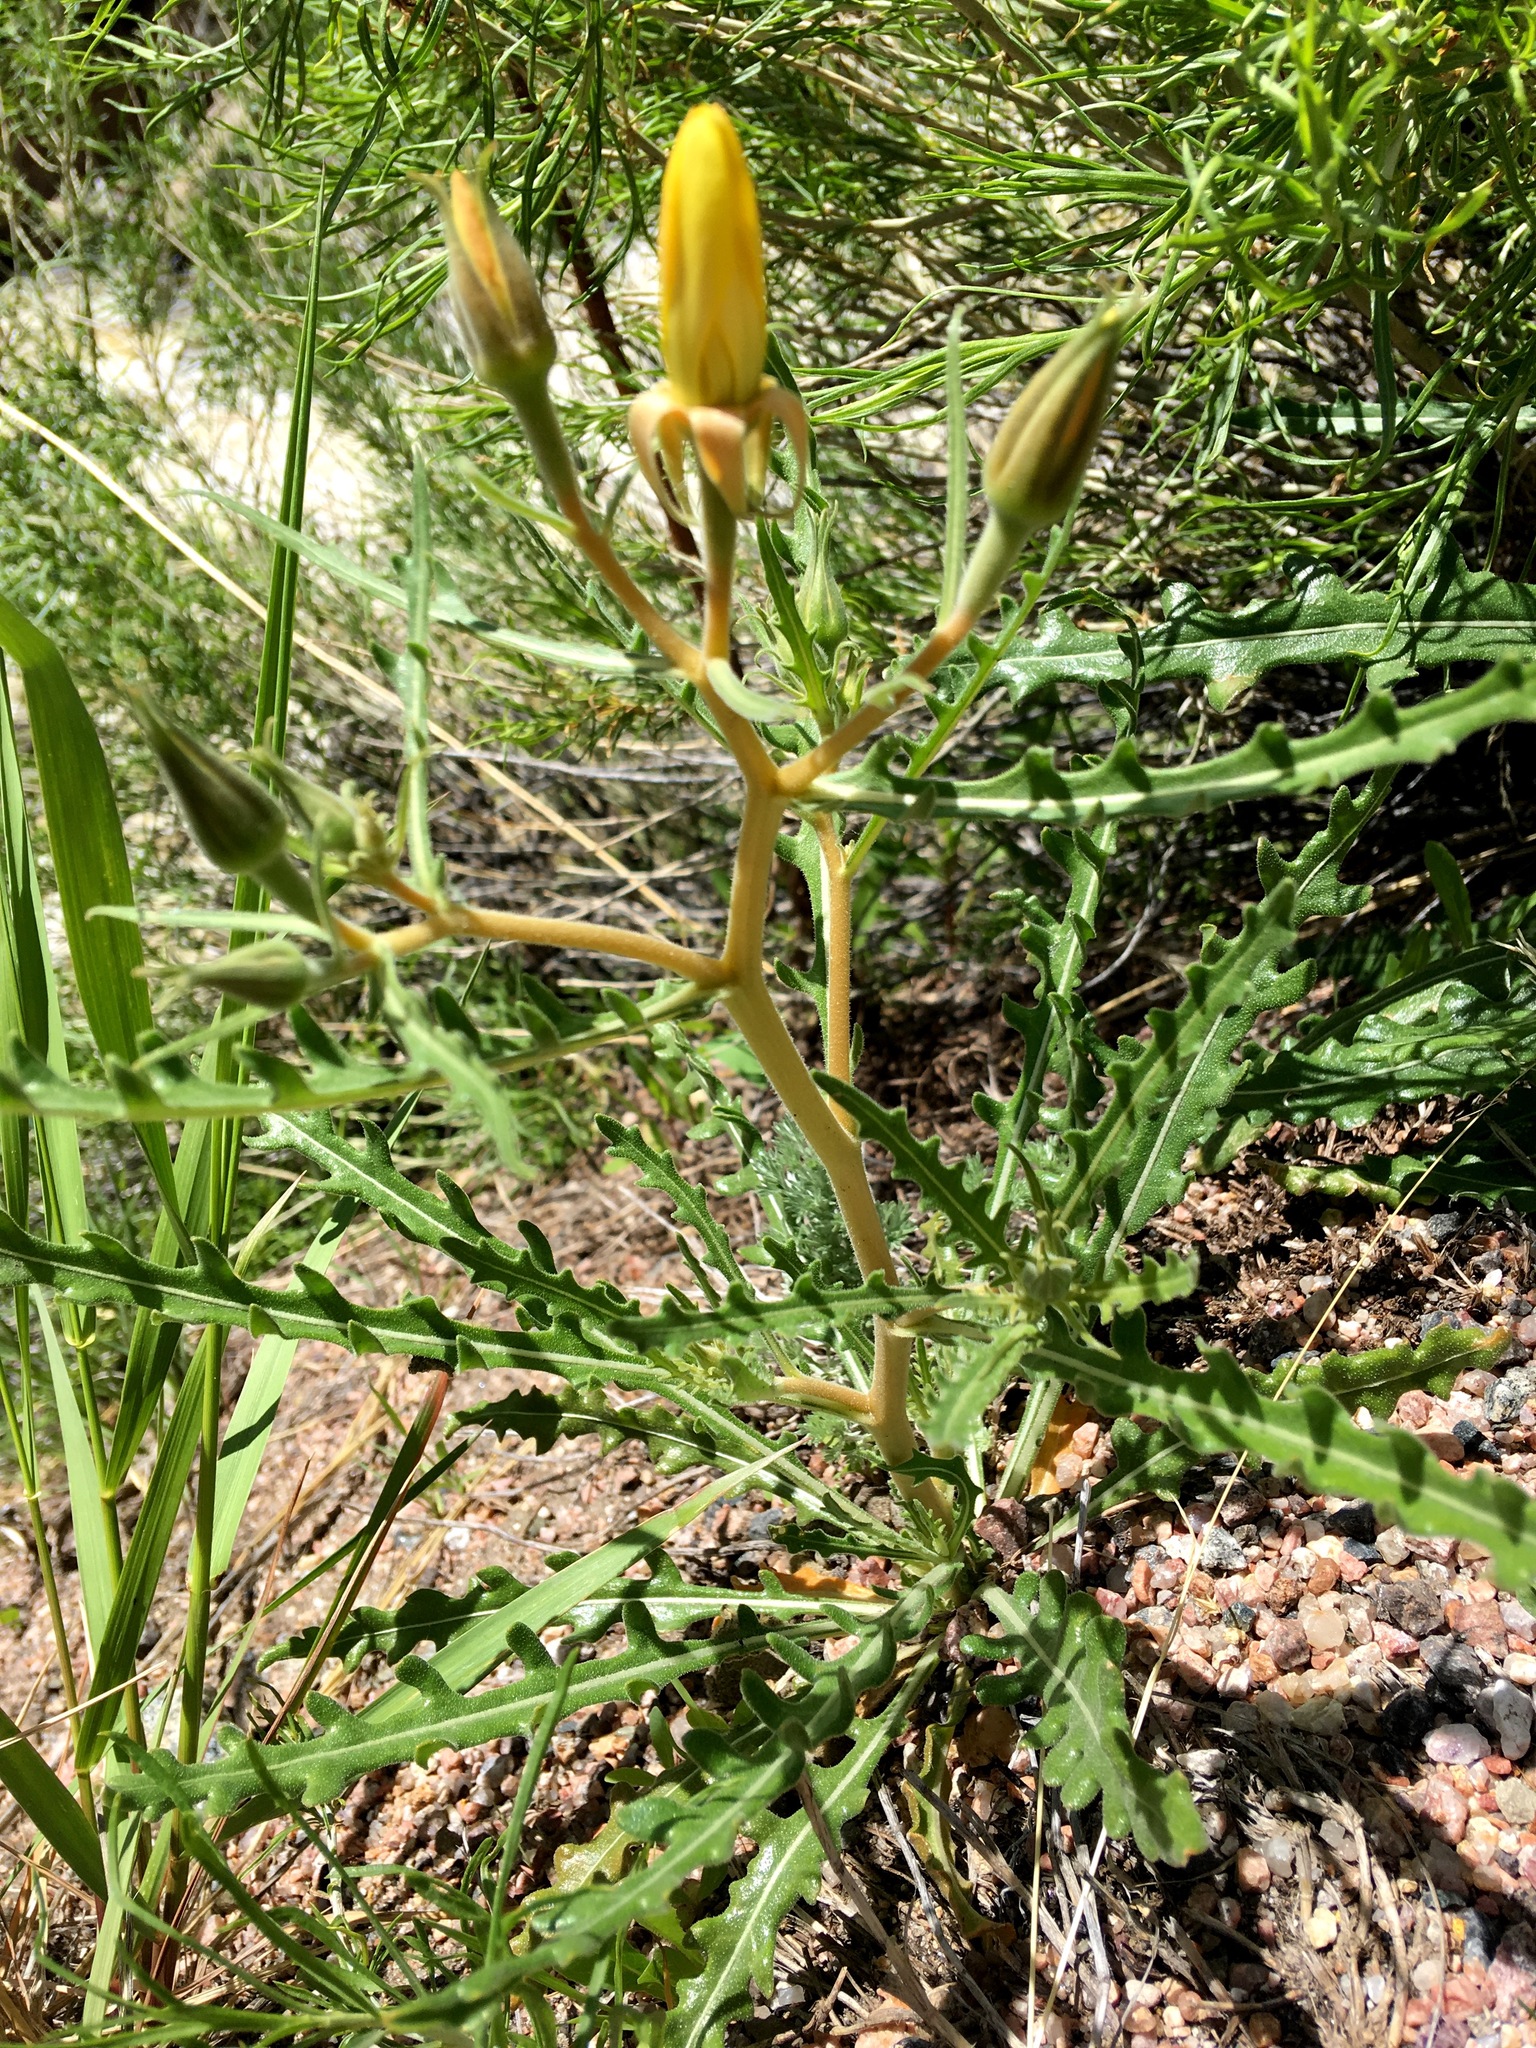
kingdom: Plantae
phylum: Tracheophyta
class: Magnoliopsida
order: Cornales
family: Loasaceae
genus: Mentzelia
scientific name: Mentzelia laevicaulis
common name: Smooth-stem blazingstar
